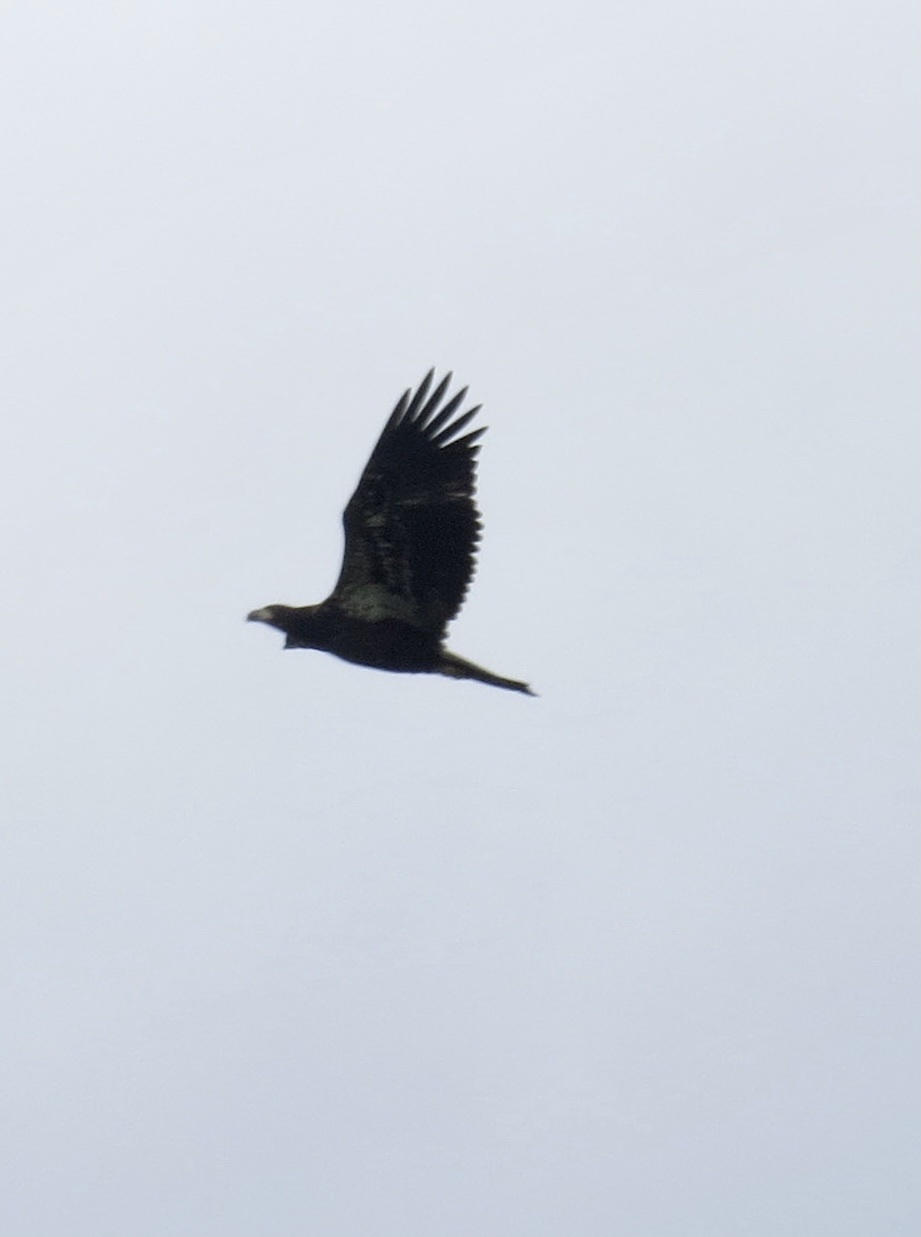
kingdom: Animalia
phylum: Chordata
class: Aves
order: Accipitriformes
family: Accipitridae
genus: Haliaeetus
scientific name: Haliaeetus leucocephalus
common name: Bald eagle
